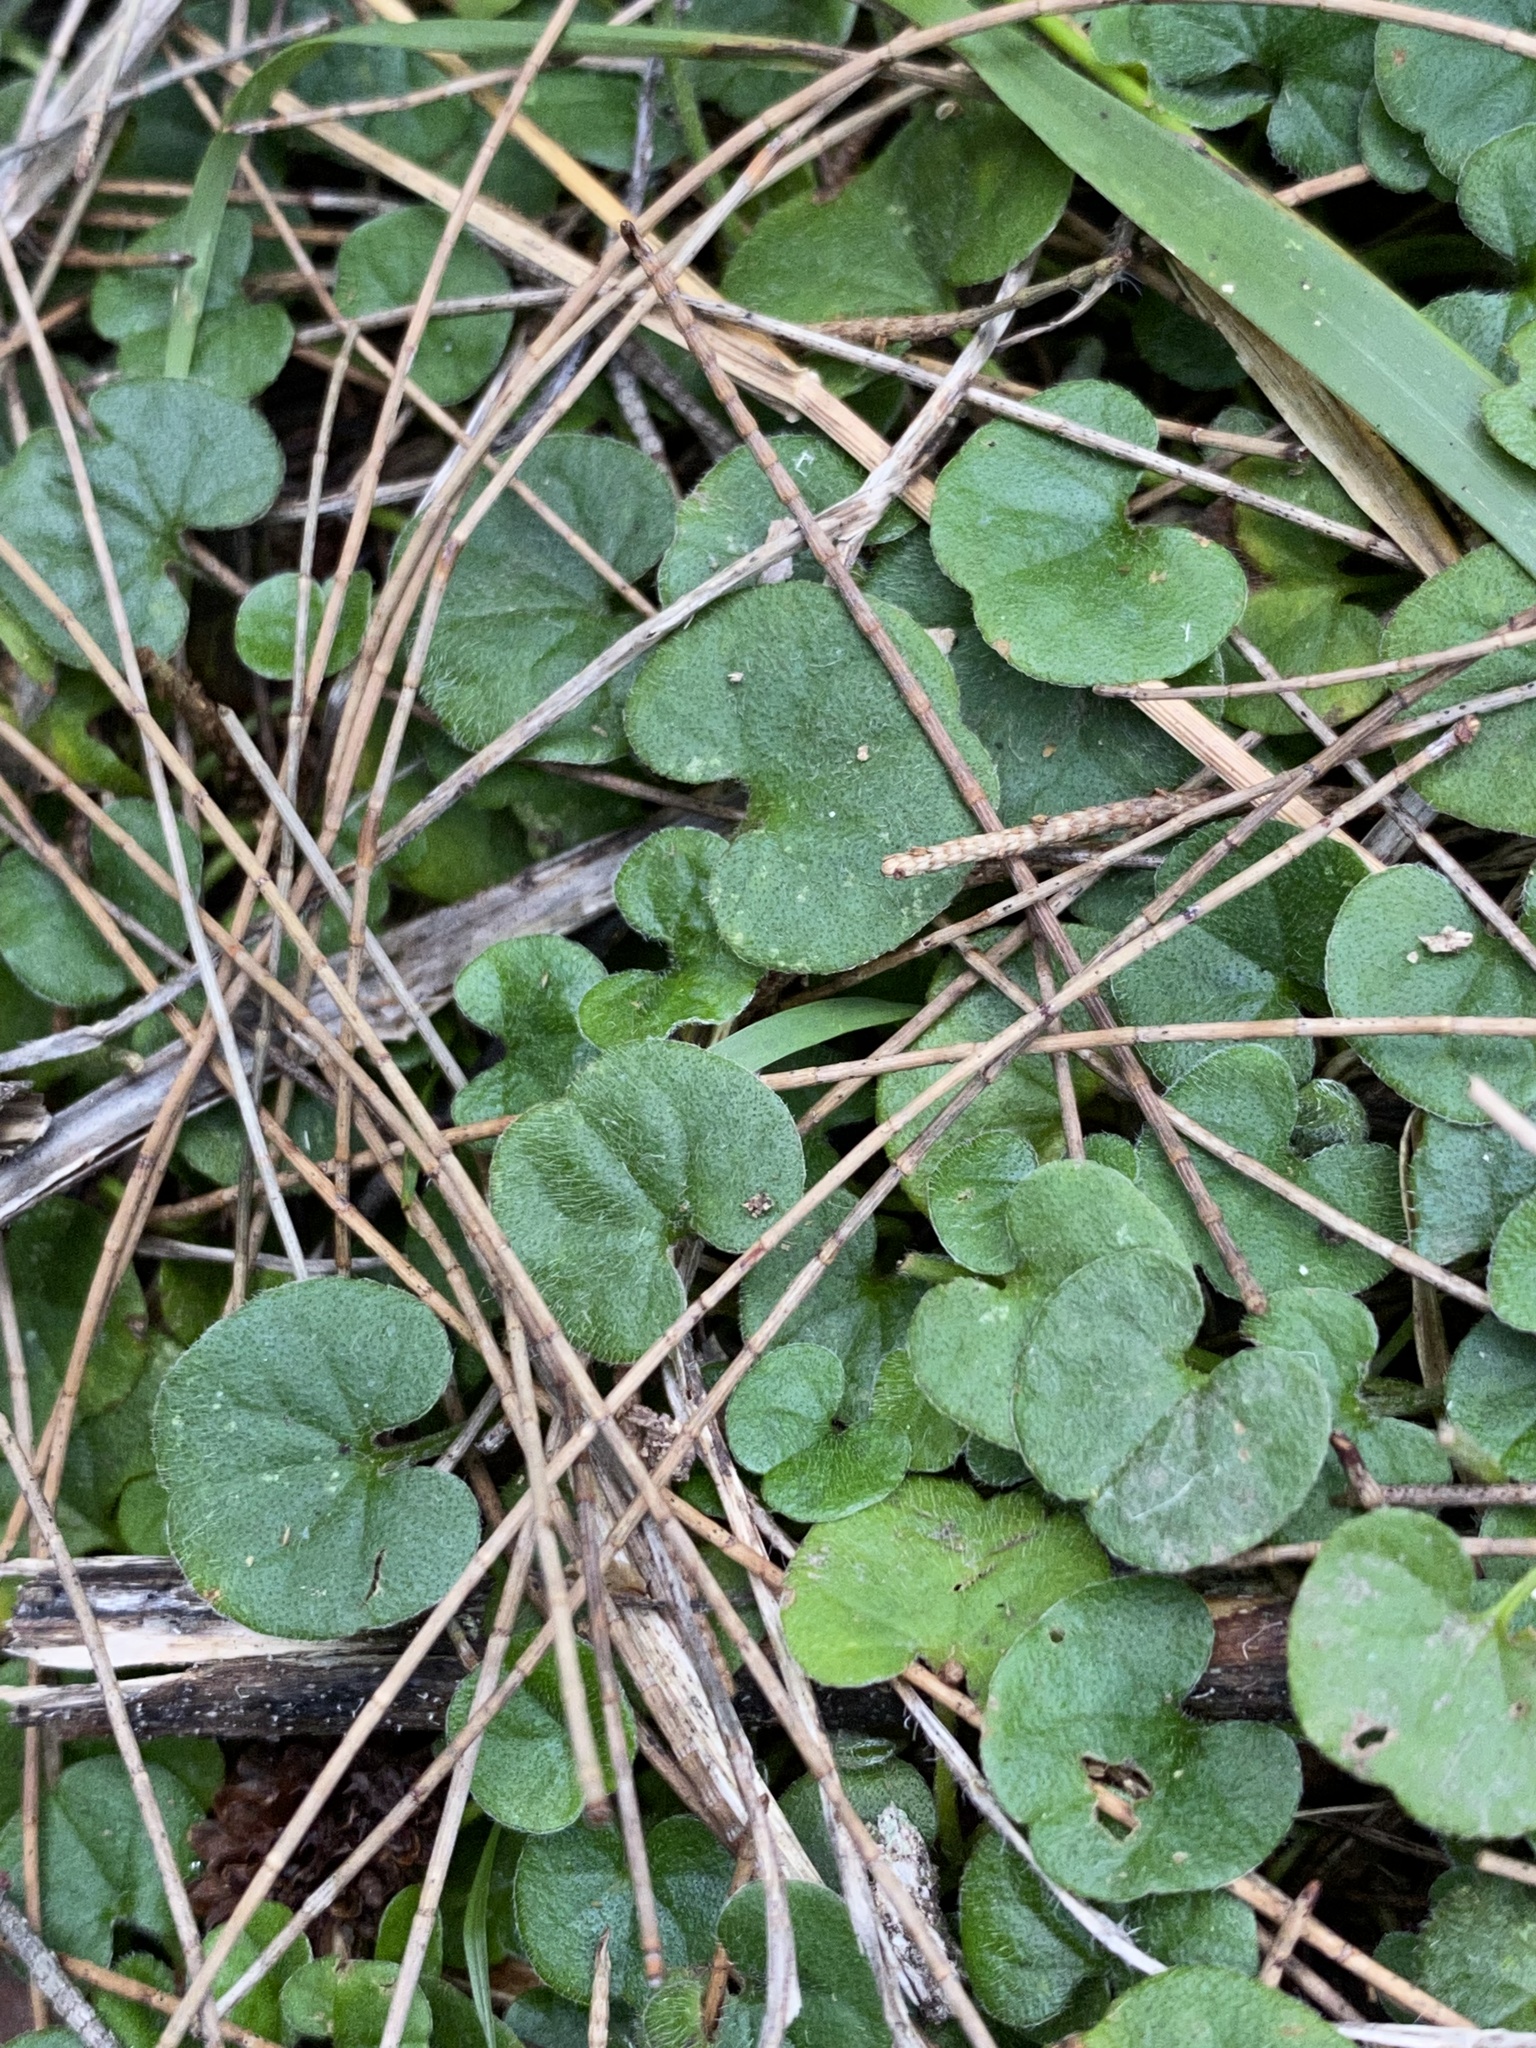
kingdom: Plantae
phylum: Tracheophyta
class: Magnoliopsida
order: Solanales
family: Convolvulaceae
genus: Dichondra
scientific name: Dichondra repens
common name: Kidneyweed
